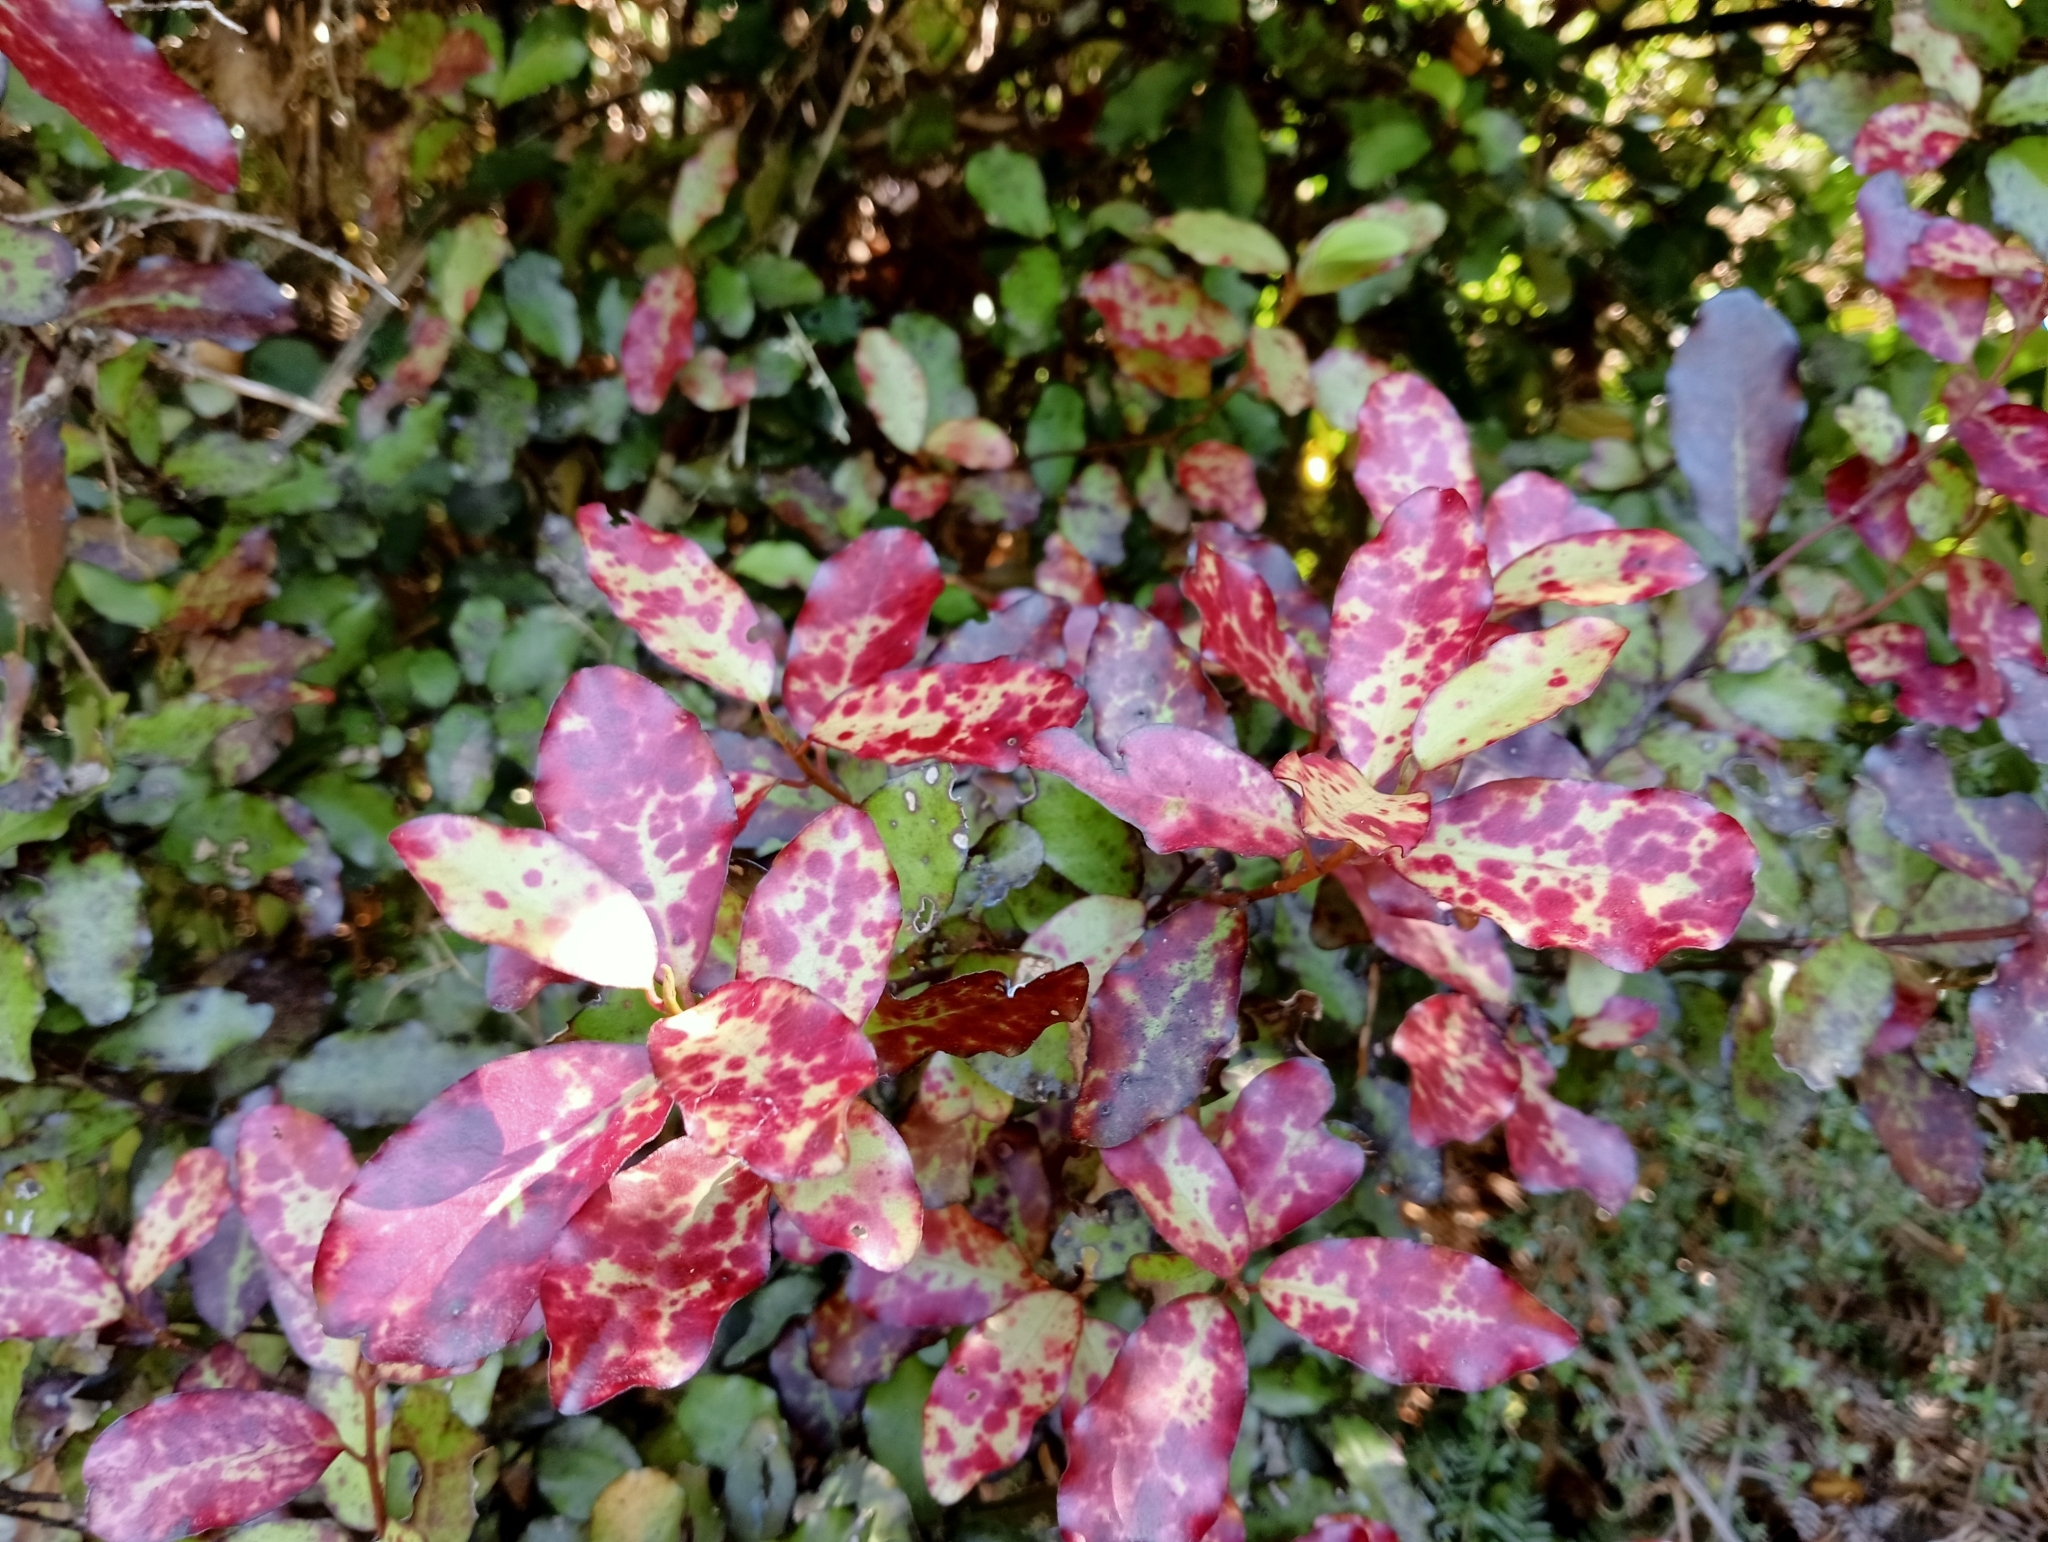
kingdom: Plantae
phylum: Tracheophyta
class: Magnoliopsida
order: Canellales
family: Winteraceae
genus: Pseudowintera
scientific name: Pseudowintera colorata
